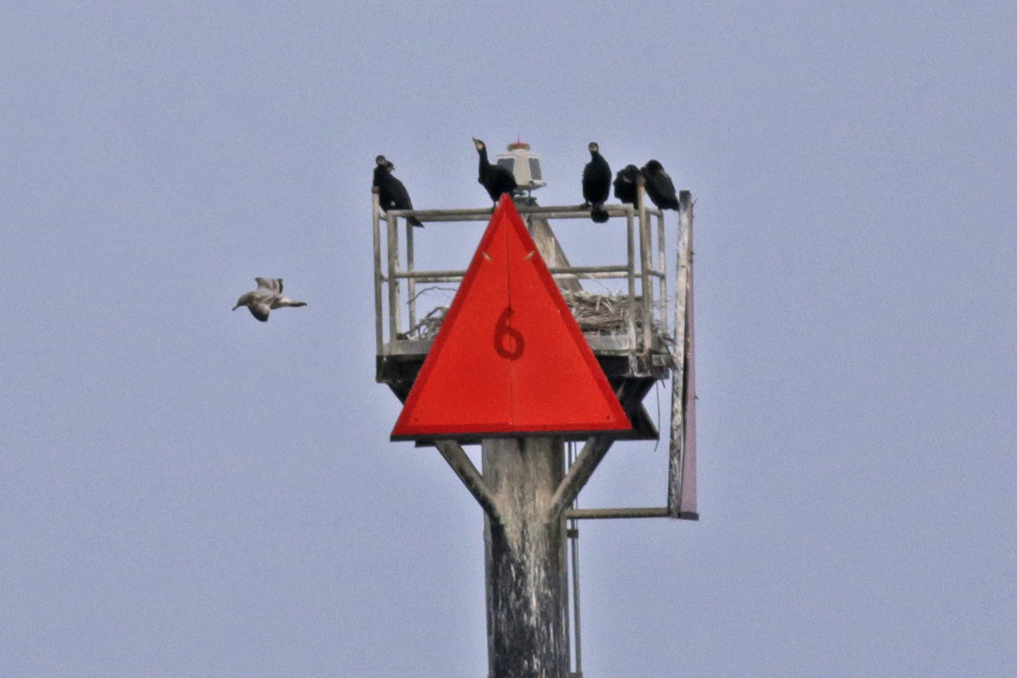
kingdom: Animalia
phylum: Chordata
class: Aves
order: Suliformes
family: Phalacrocoracidae
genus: Phalacrocorax
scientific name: Phalacrocorax carbo
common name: Great cormorant
